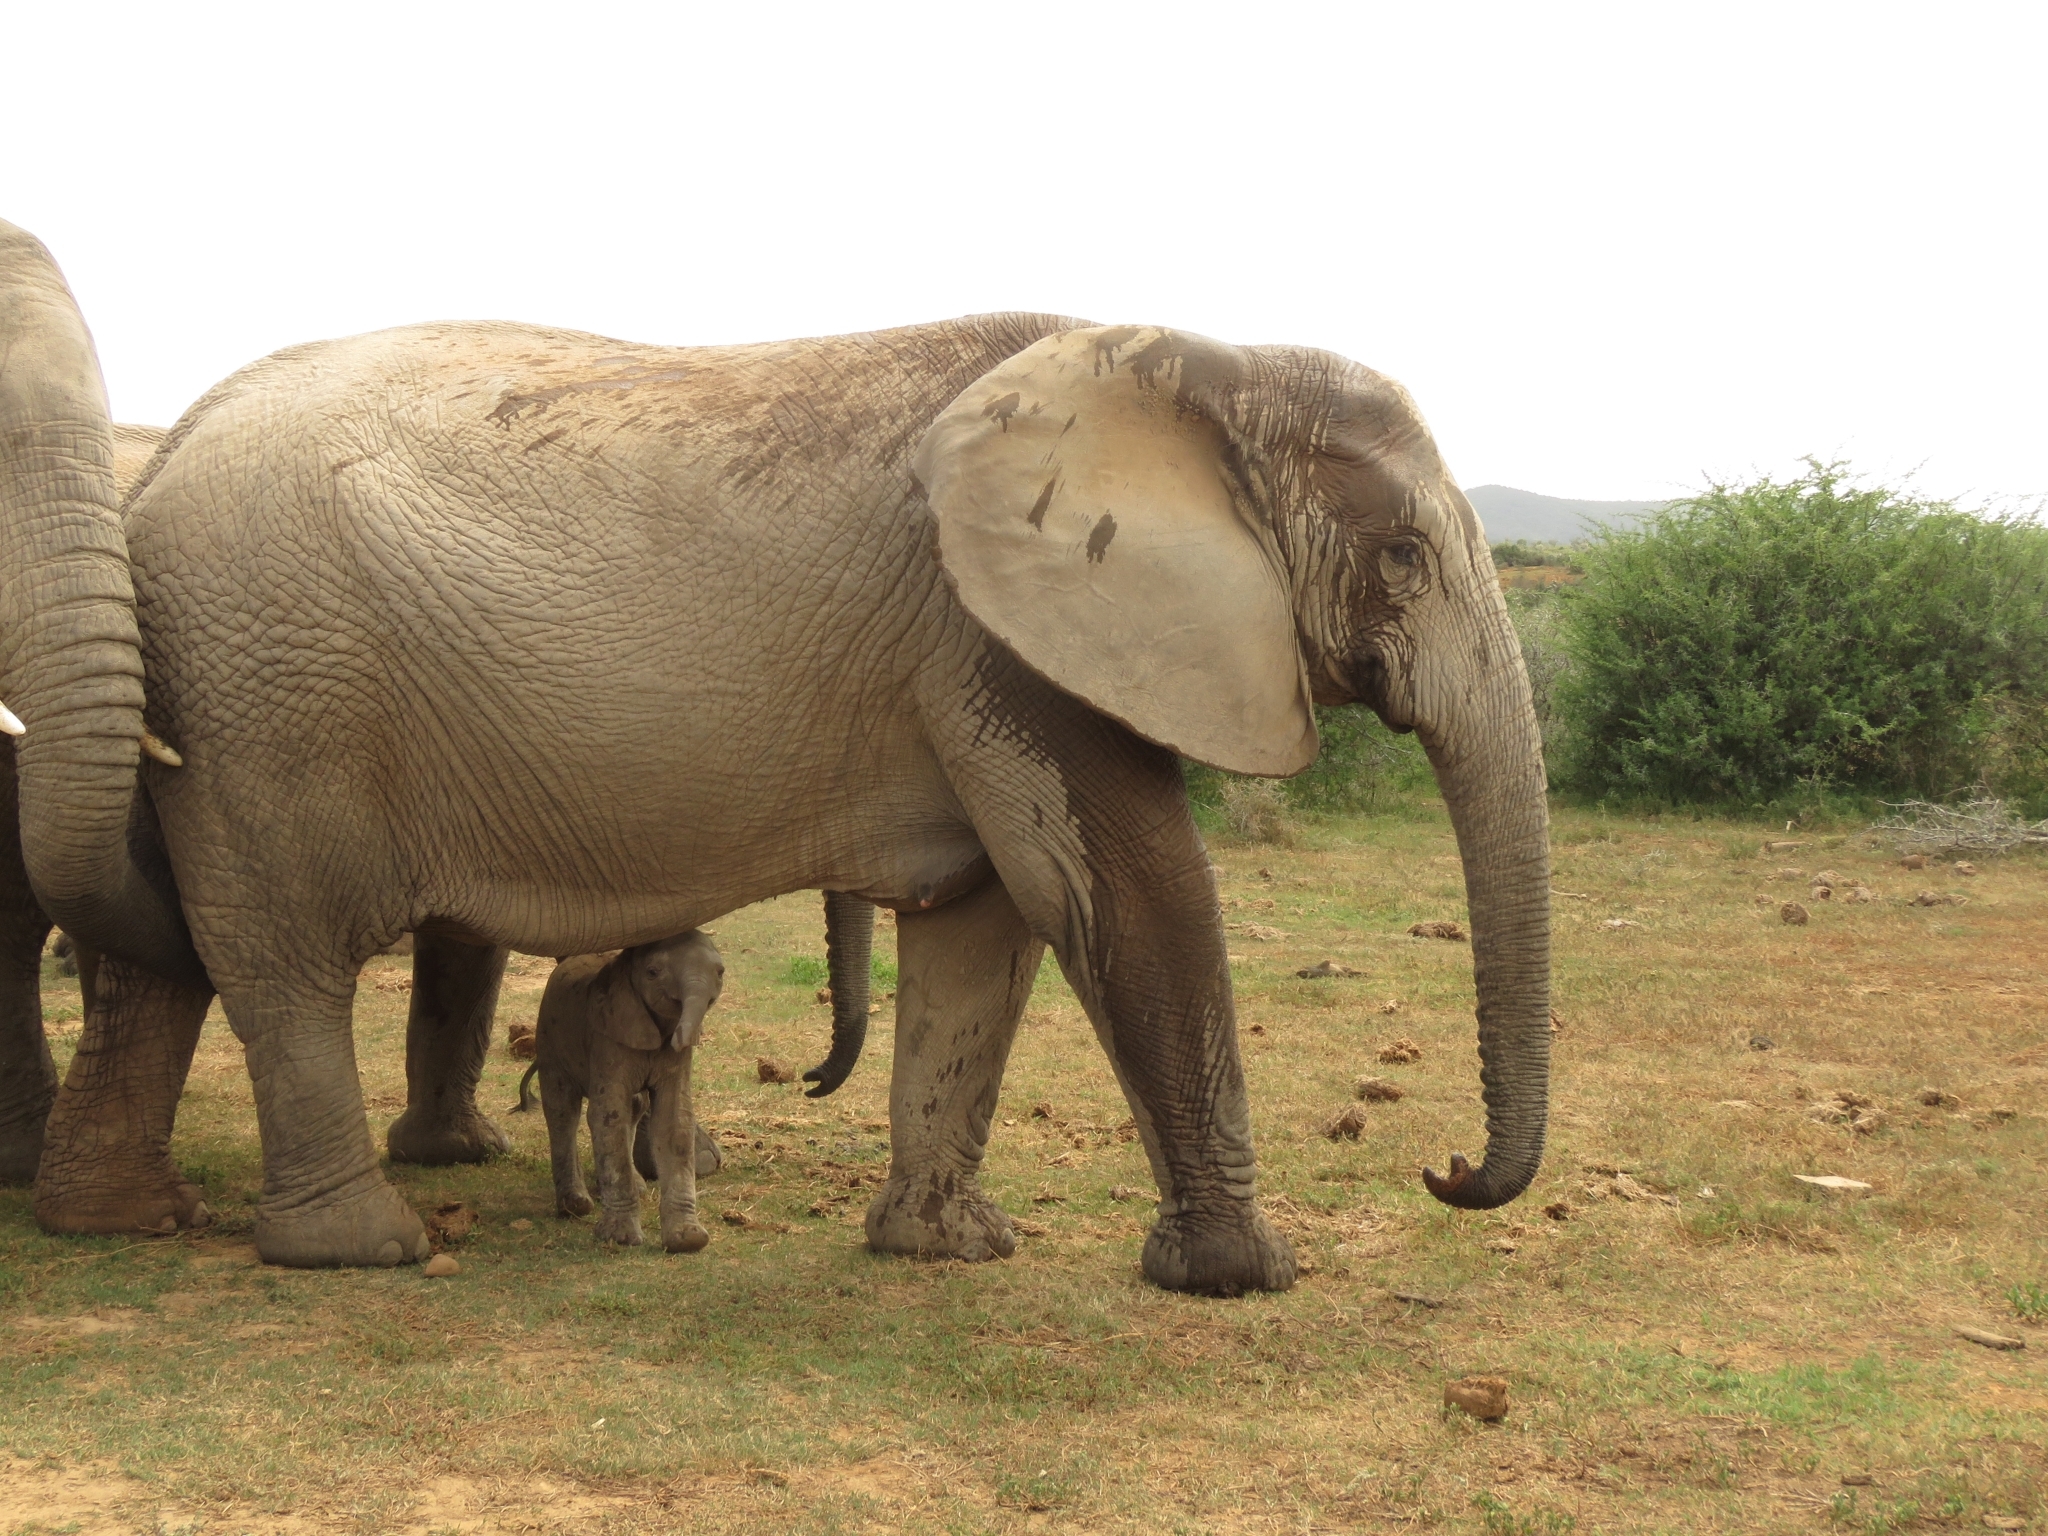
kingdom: Animalia
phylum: Chordata
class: Mammalia
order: Proboscidea
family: Elephantidae
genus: Loxodonta
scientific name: Loxodonta africana
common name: African elephant
